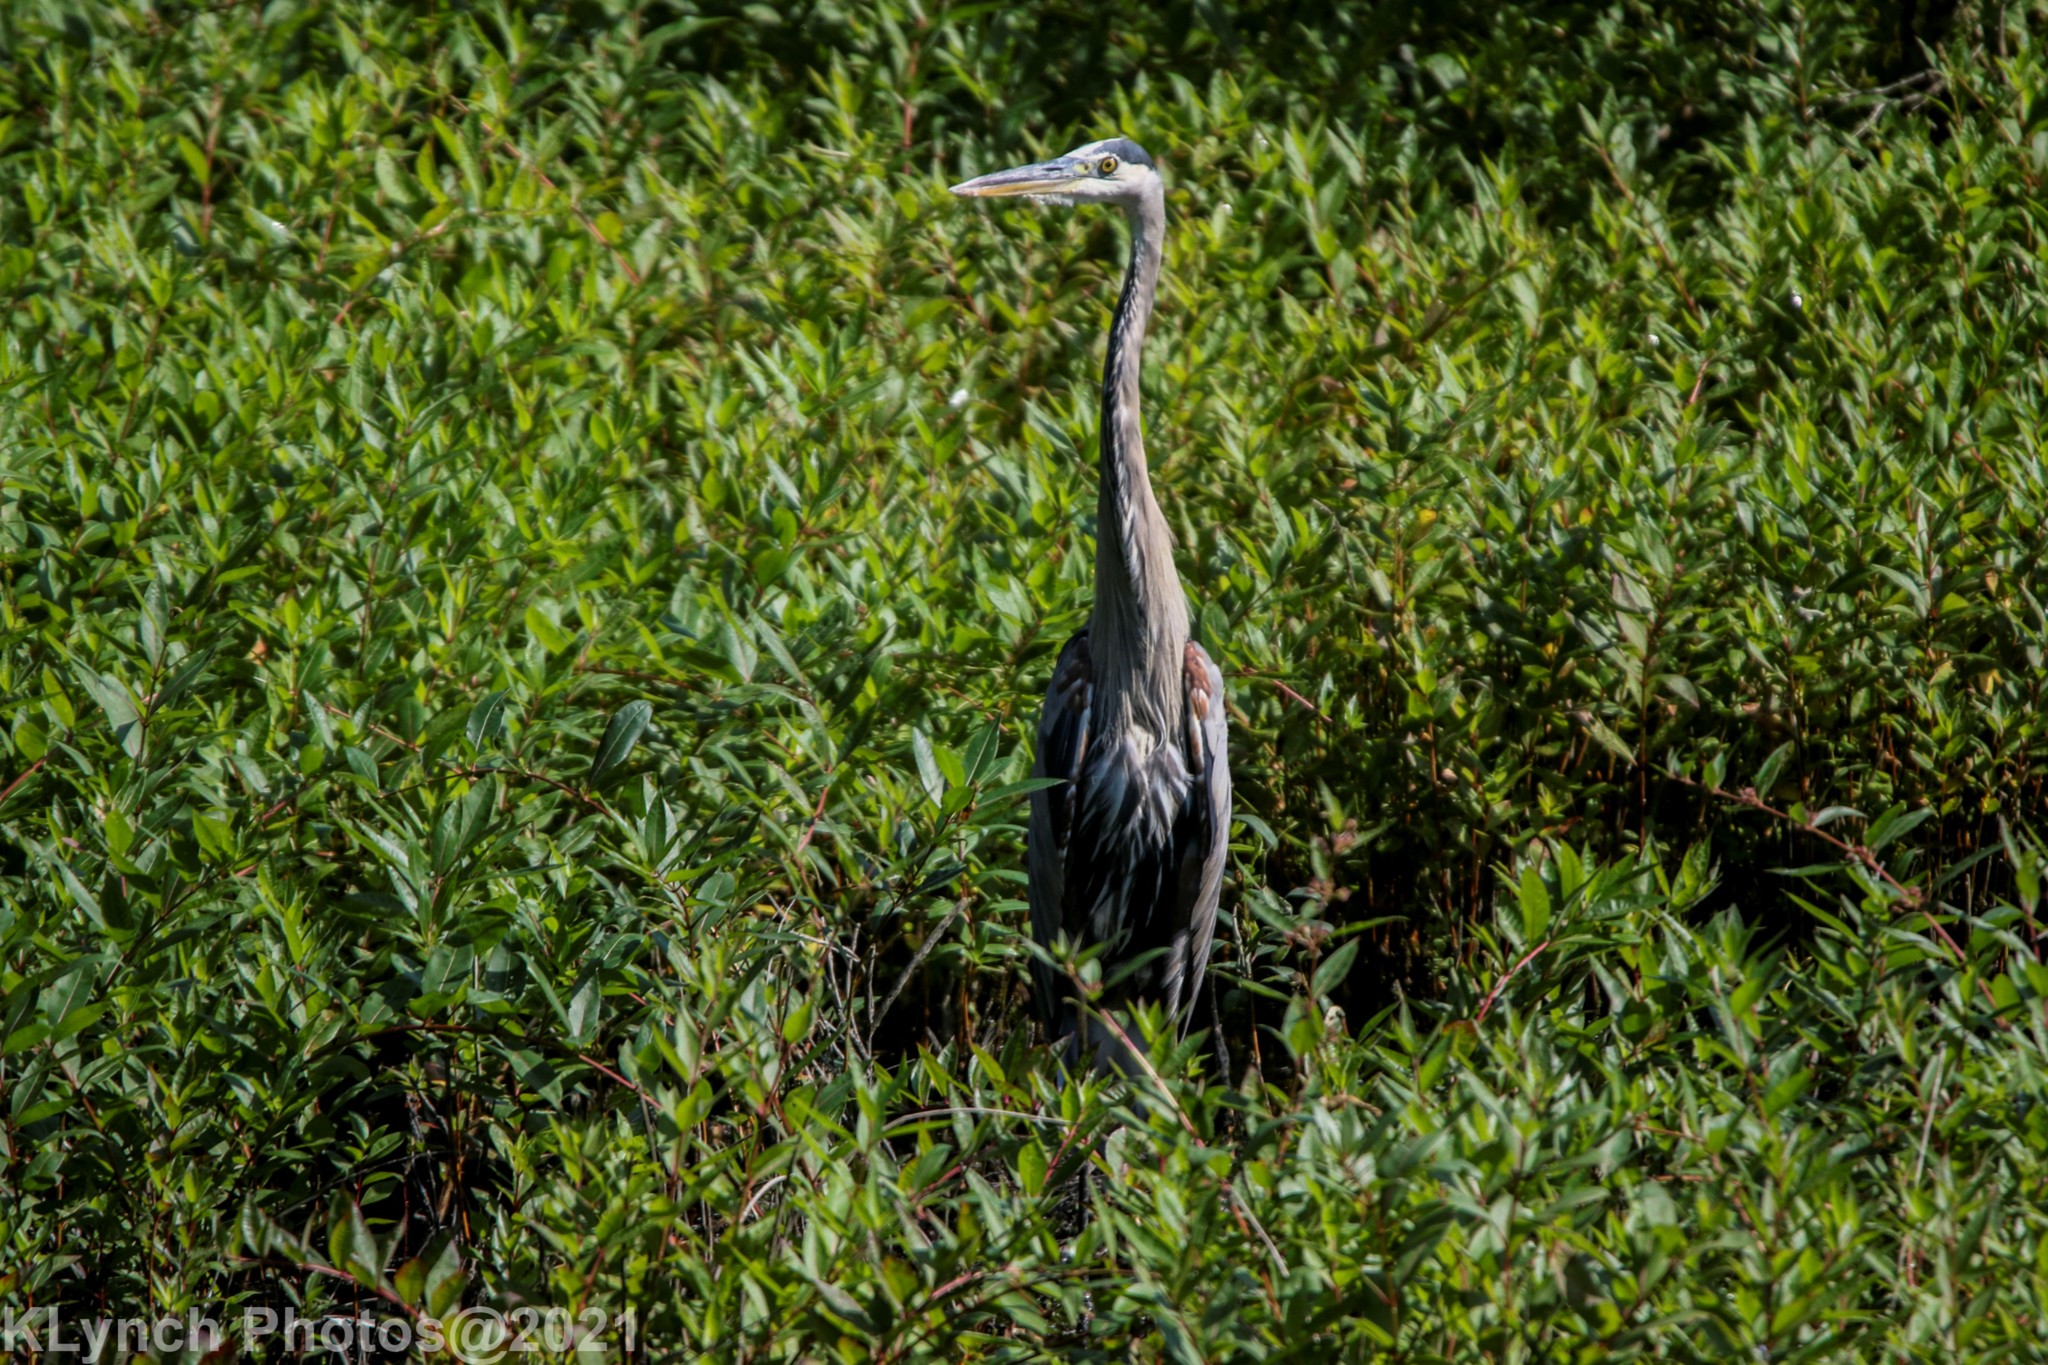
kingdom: Animalia
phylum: Chordata
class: Aves
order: Pelecaniformes
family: Ardeidae
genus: Ardea
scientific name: Ardea herodias
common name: Great blue heron
